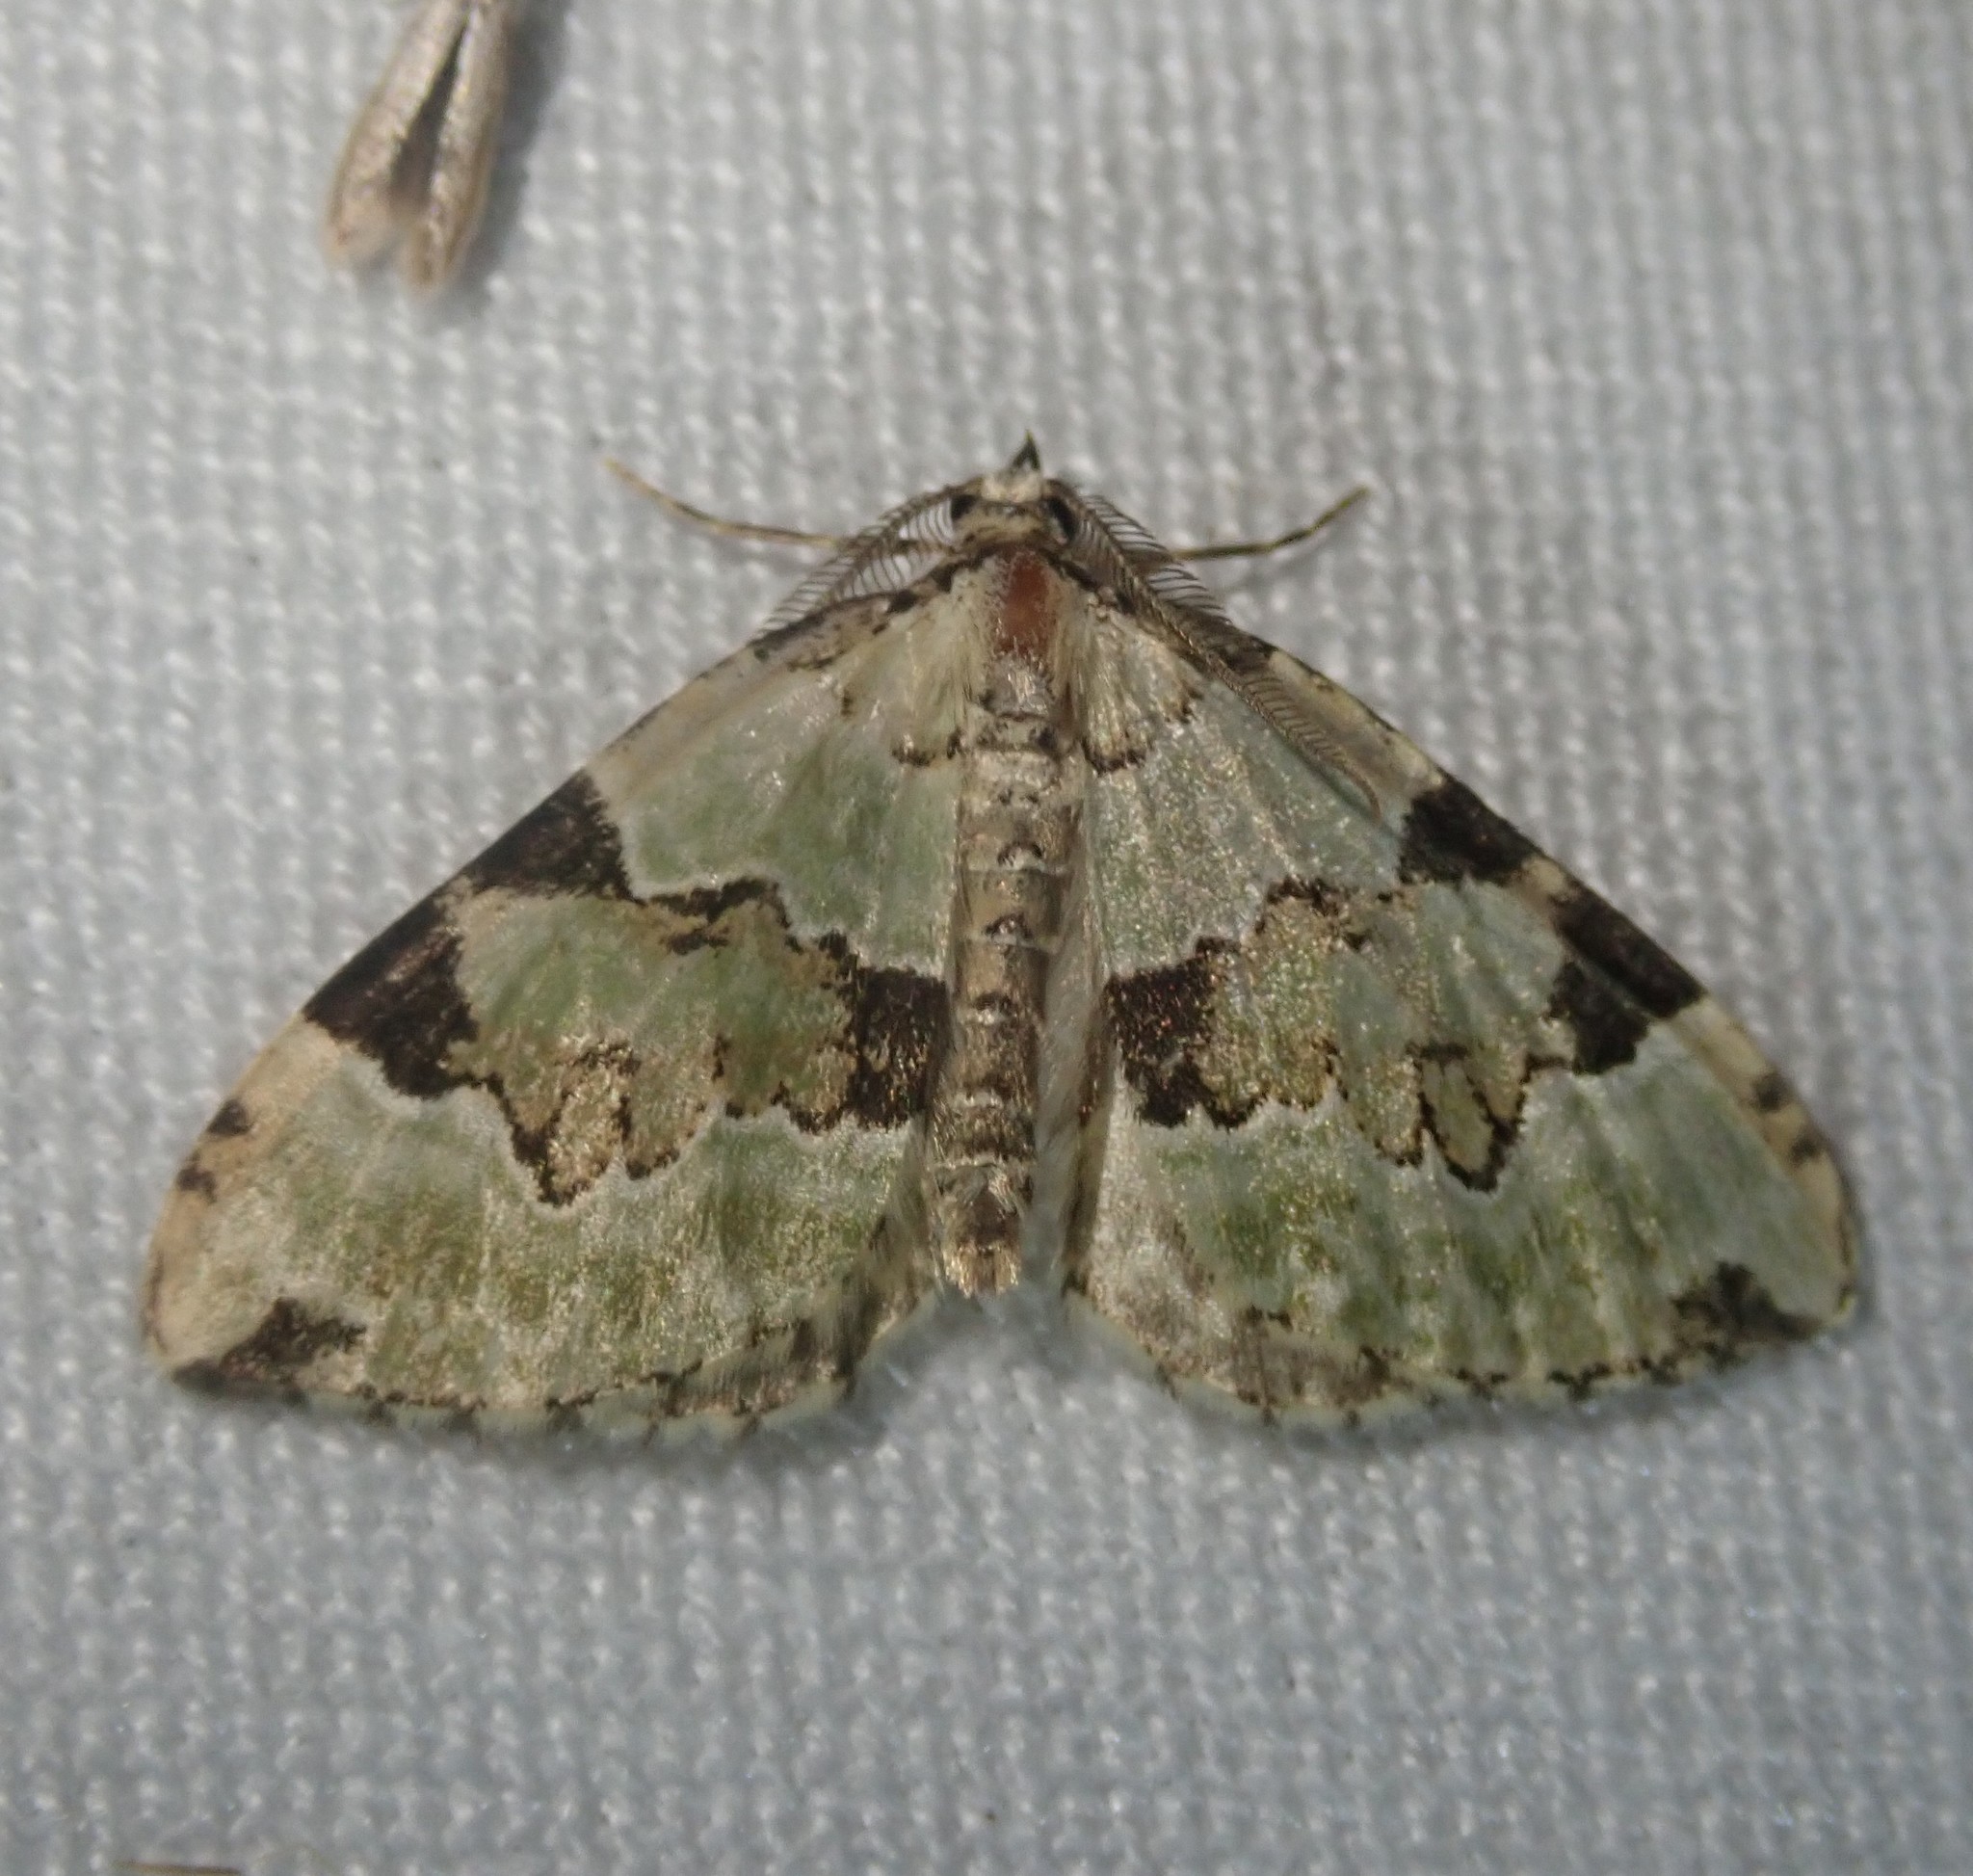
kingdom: Animalia
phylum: Arthropoda
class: Insecta
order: Lepidoptera
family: Geometridae
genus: Colostygia
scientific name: Colostygia pectinataria
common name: Green carpet
